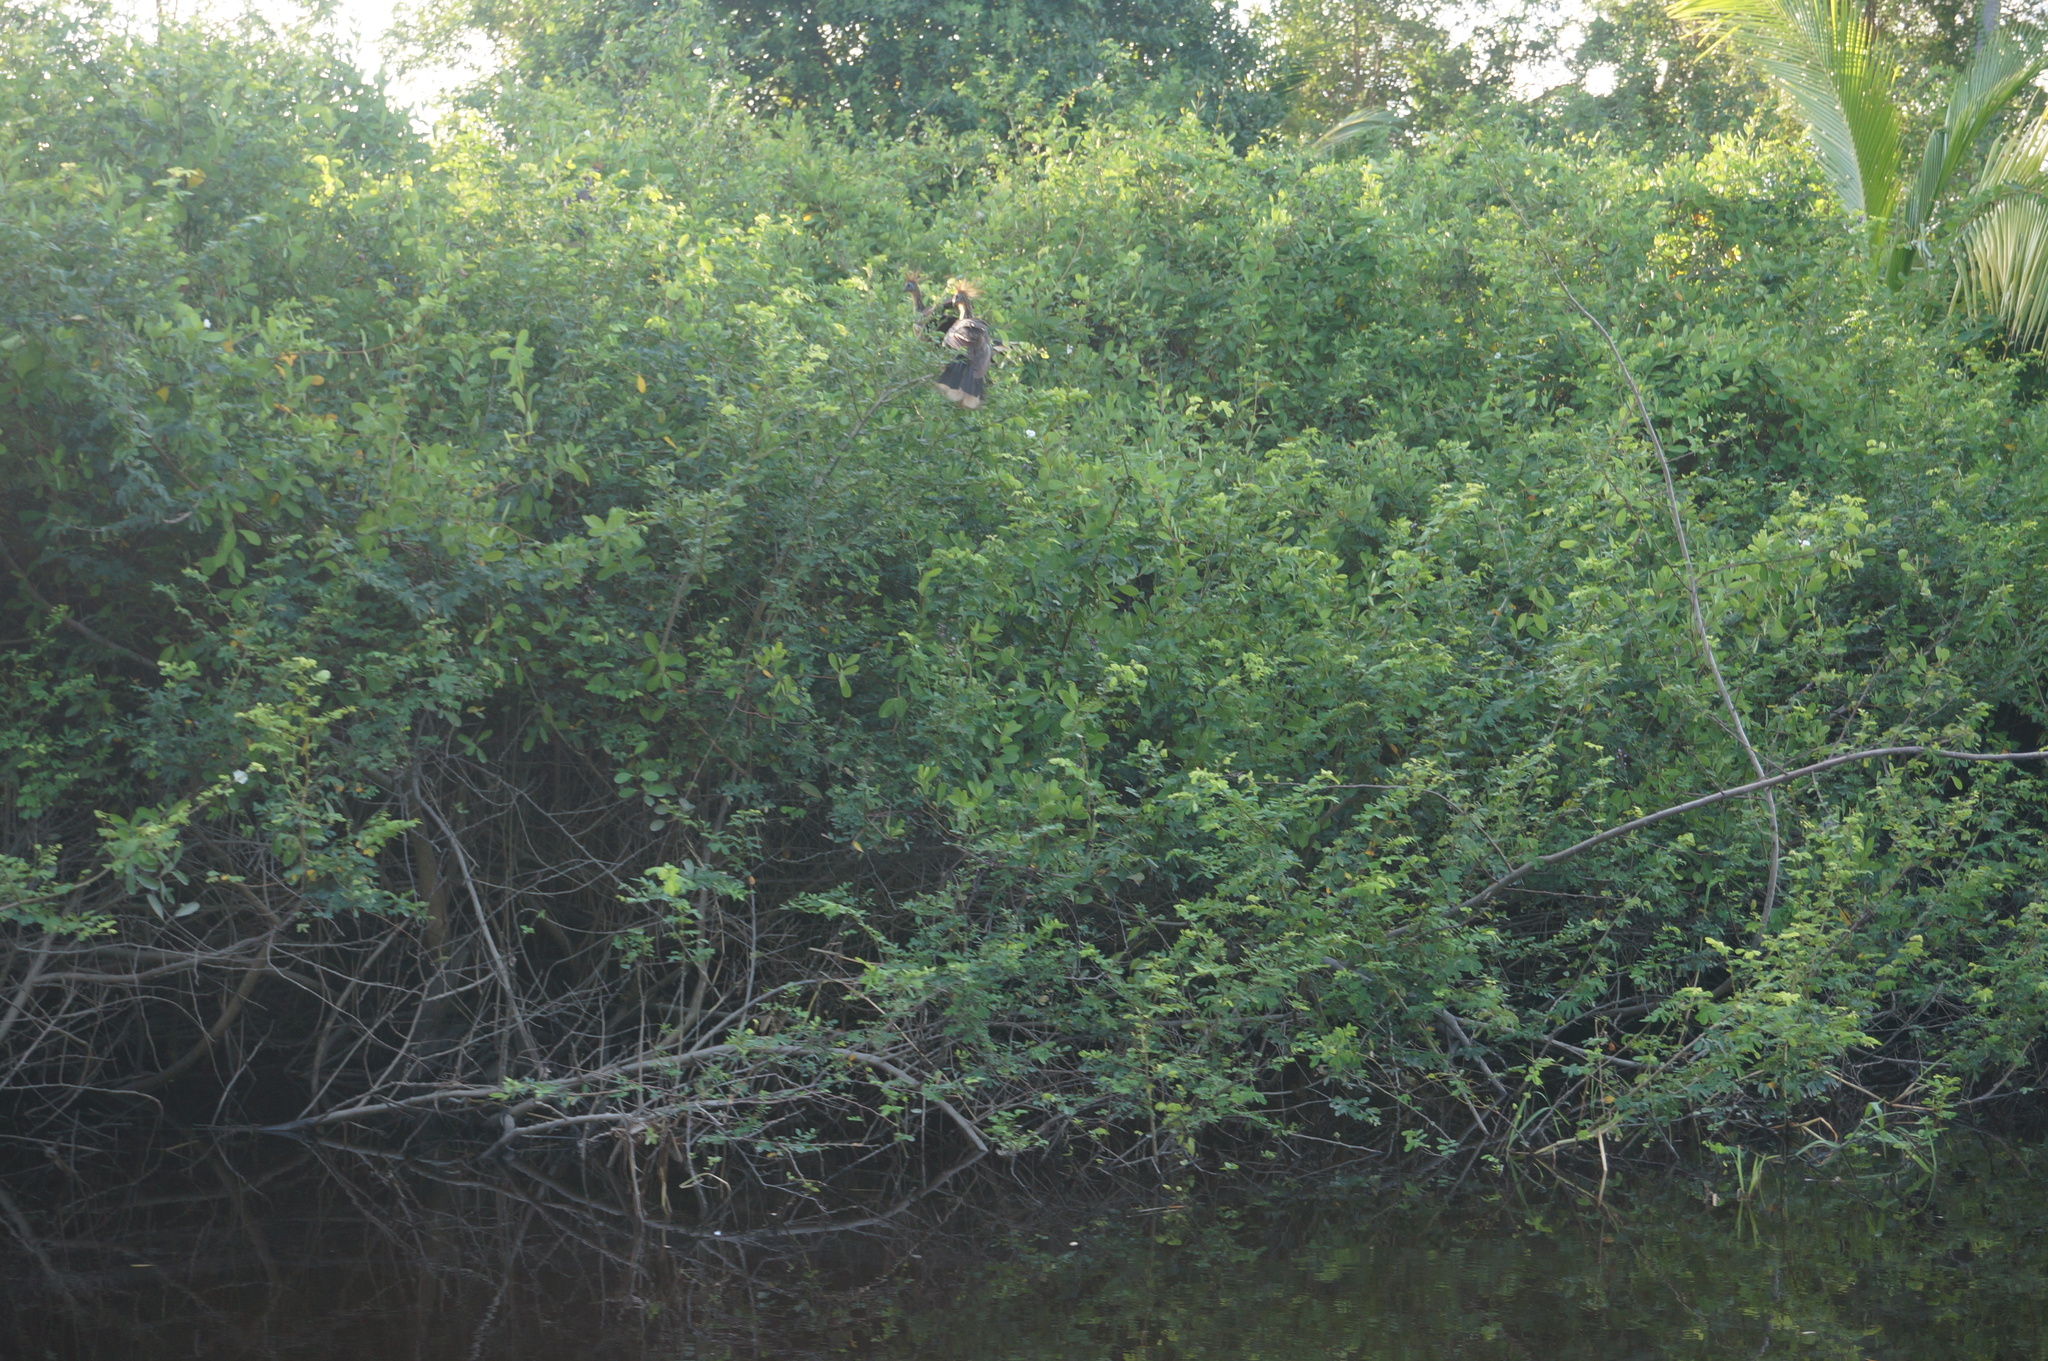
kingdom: Animalia
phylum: Chordata
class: Aves
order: Opisthocomiformes
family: Opisthocomidae
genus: Opisthocomus
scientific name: Opisthocomus hoazin
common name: Hoatzin
